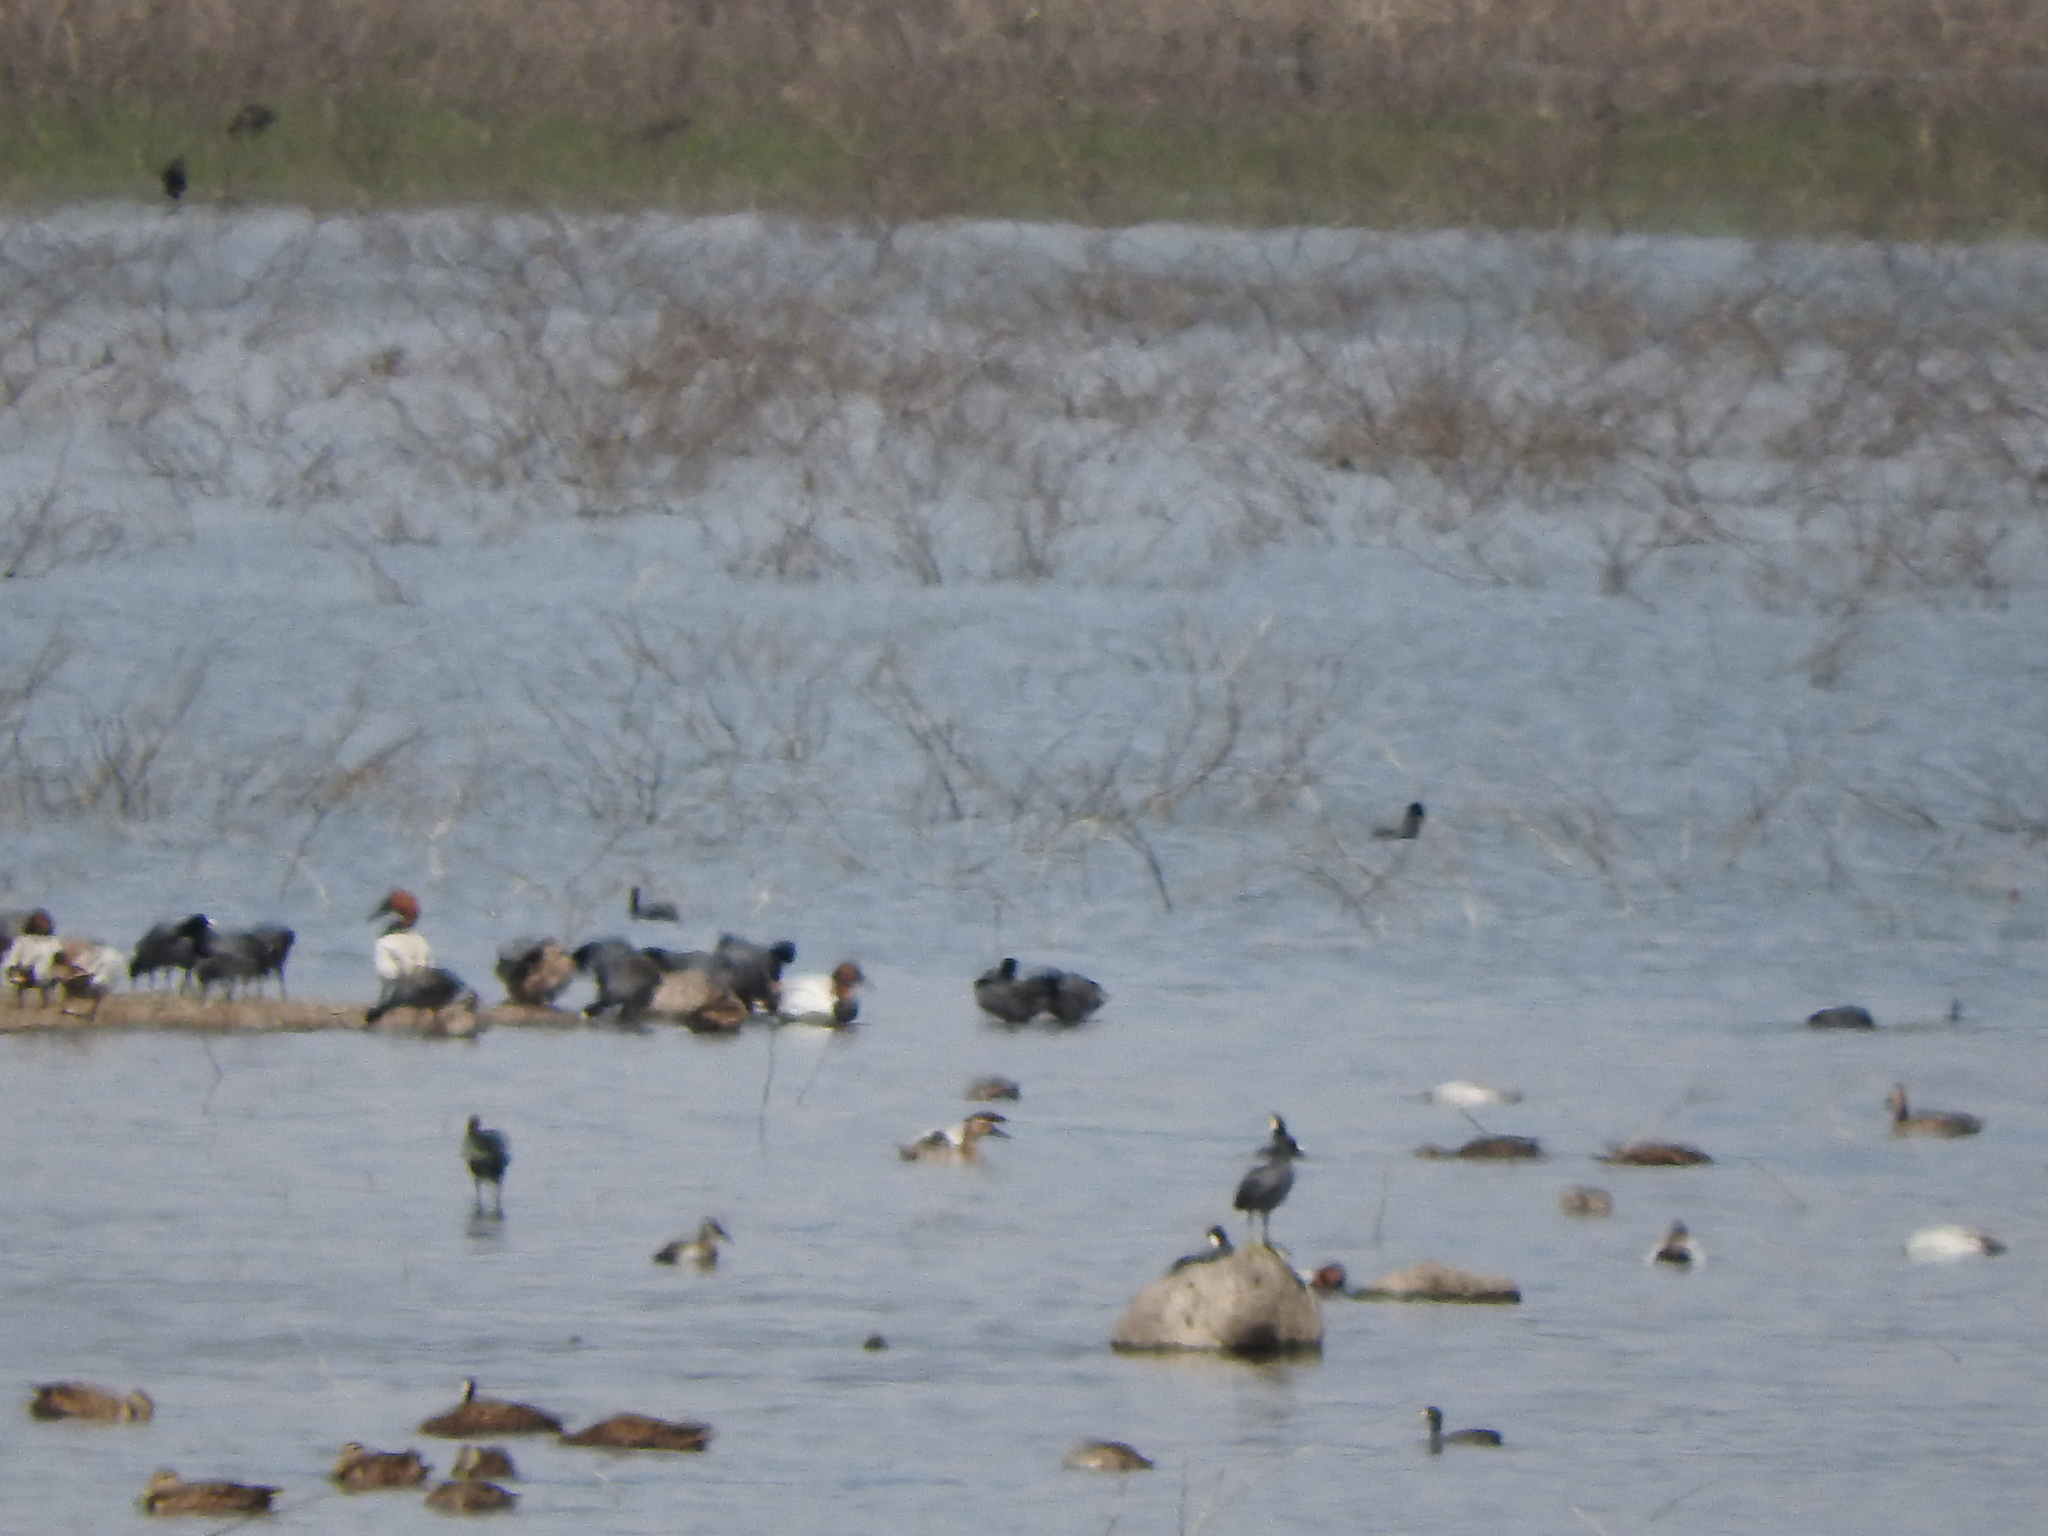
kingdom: Animalia
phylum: Chordata
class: Aves
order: Anseriformes
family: Anatidae
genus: Aythya
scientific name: Aythya valisineria
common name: Canvasback
